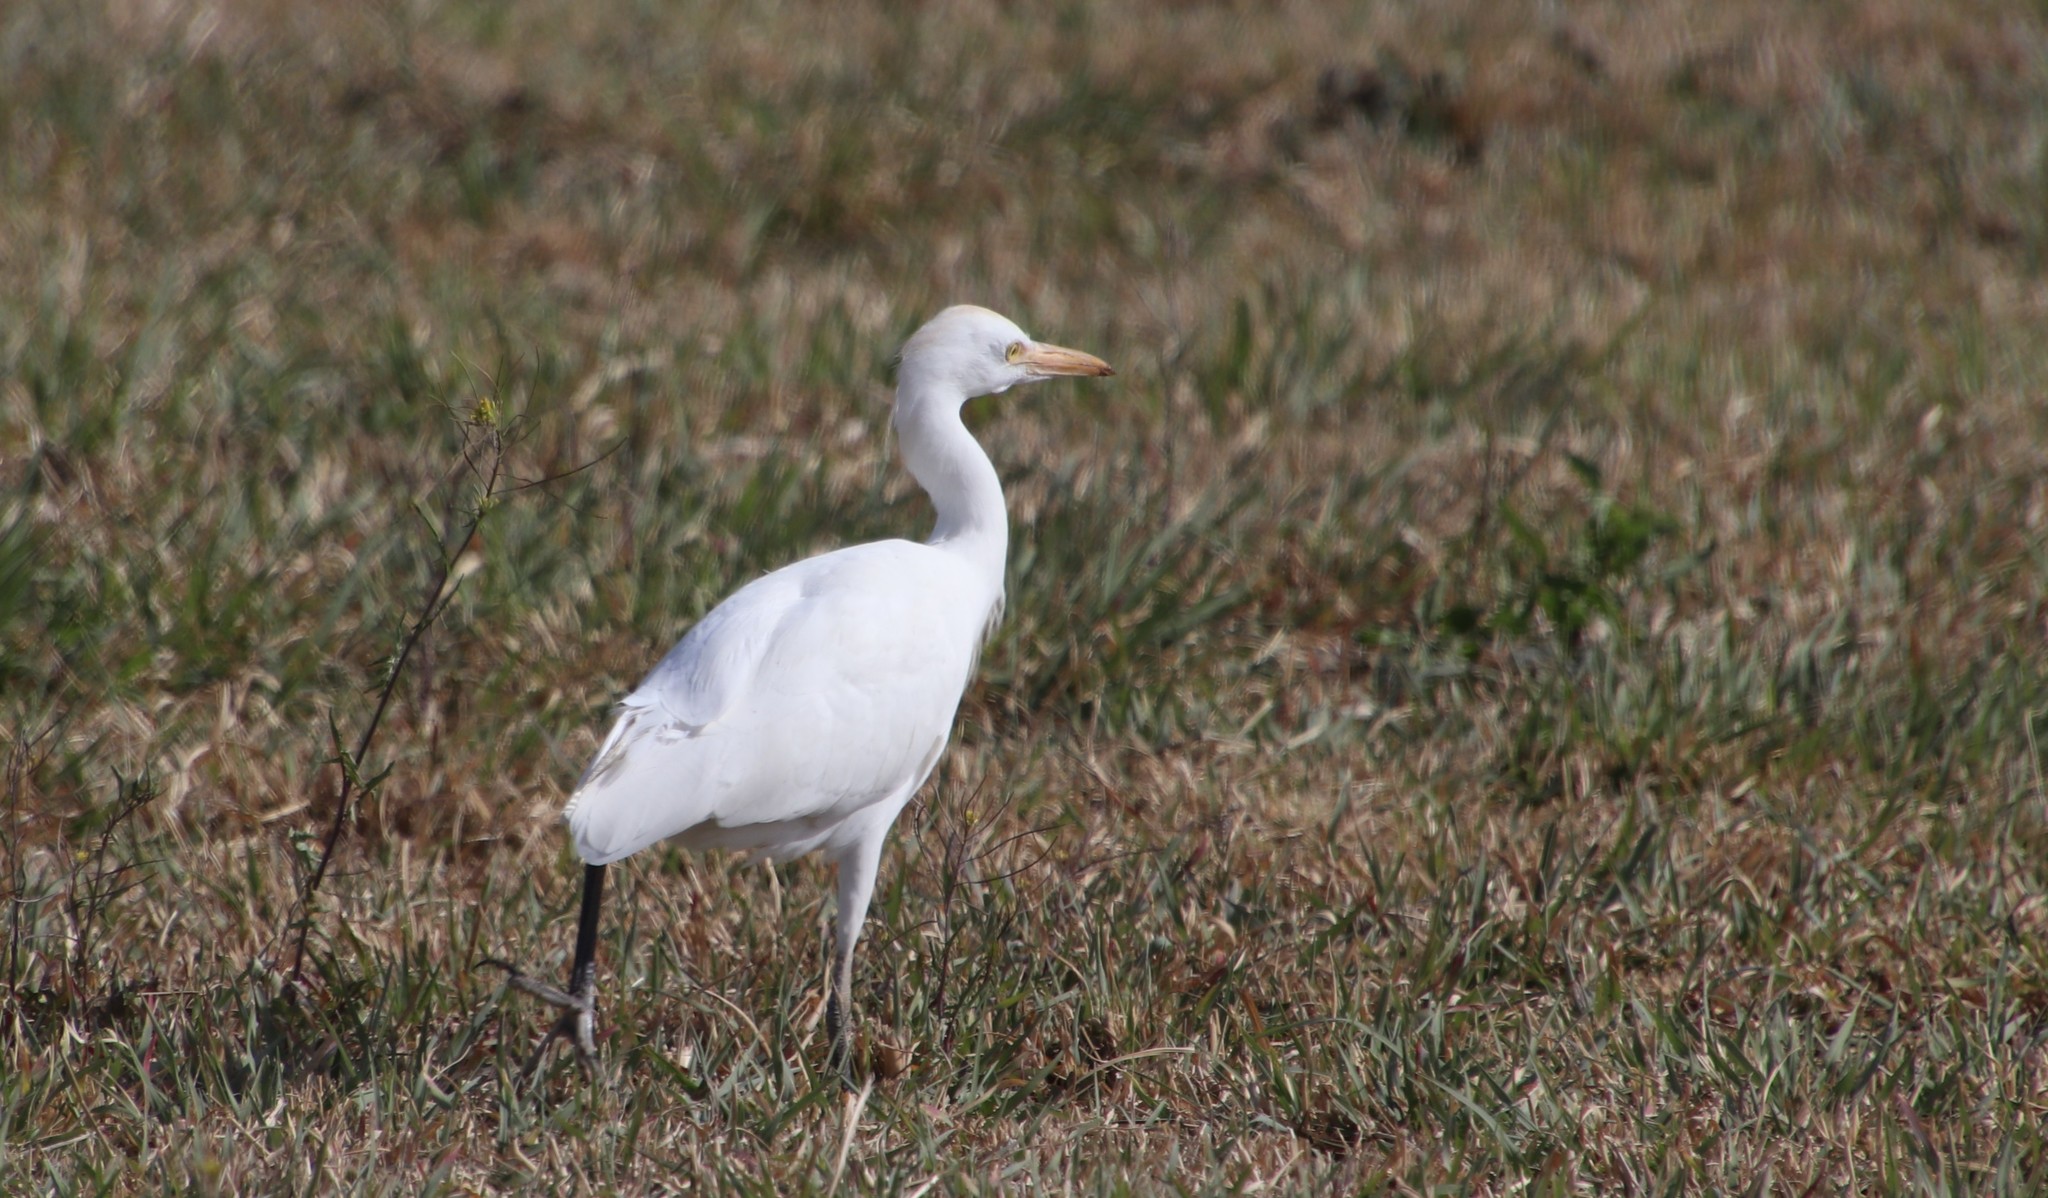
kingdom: Animalia
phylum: Chordata
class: Aves
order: Pelecaniformes
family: Ardeidae
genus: Bubulcus
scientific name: Bubulcus ibis
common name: Cattle egret
